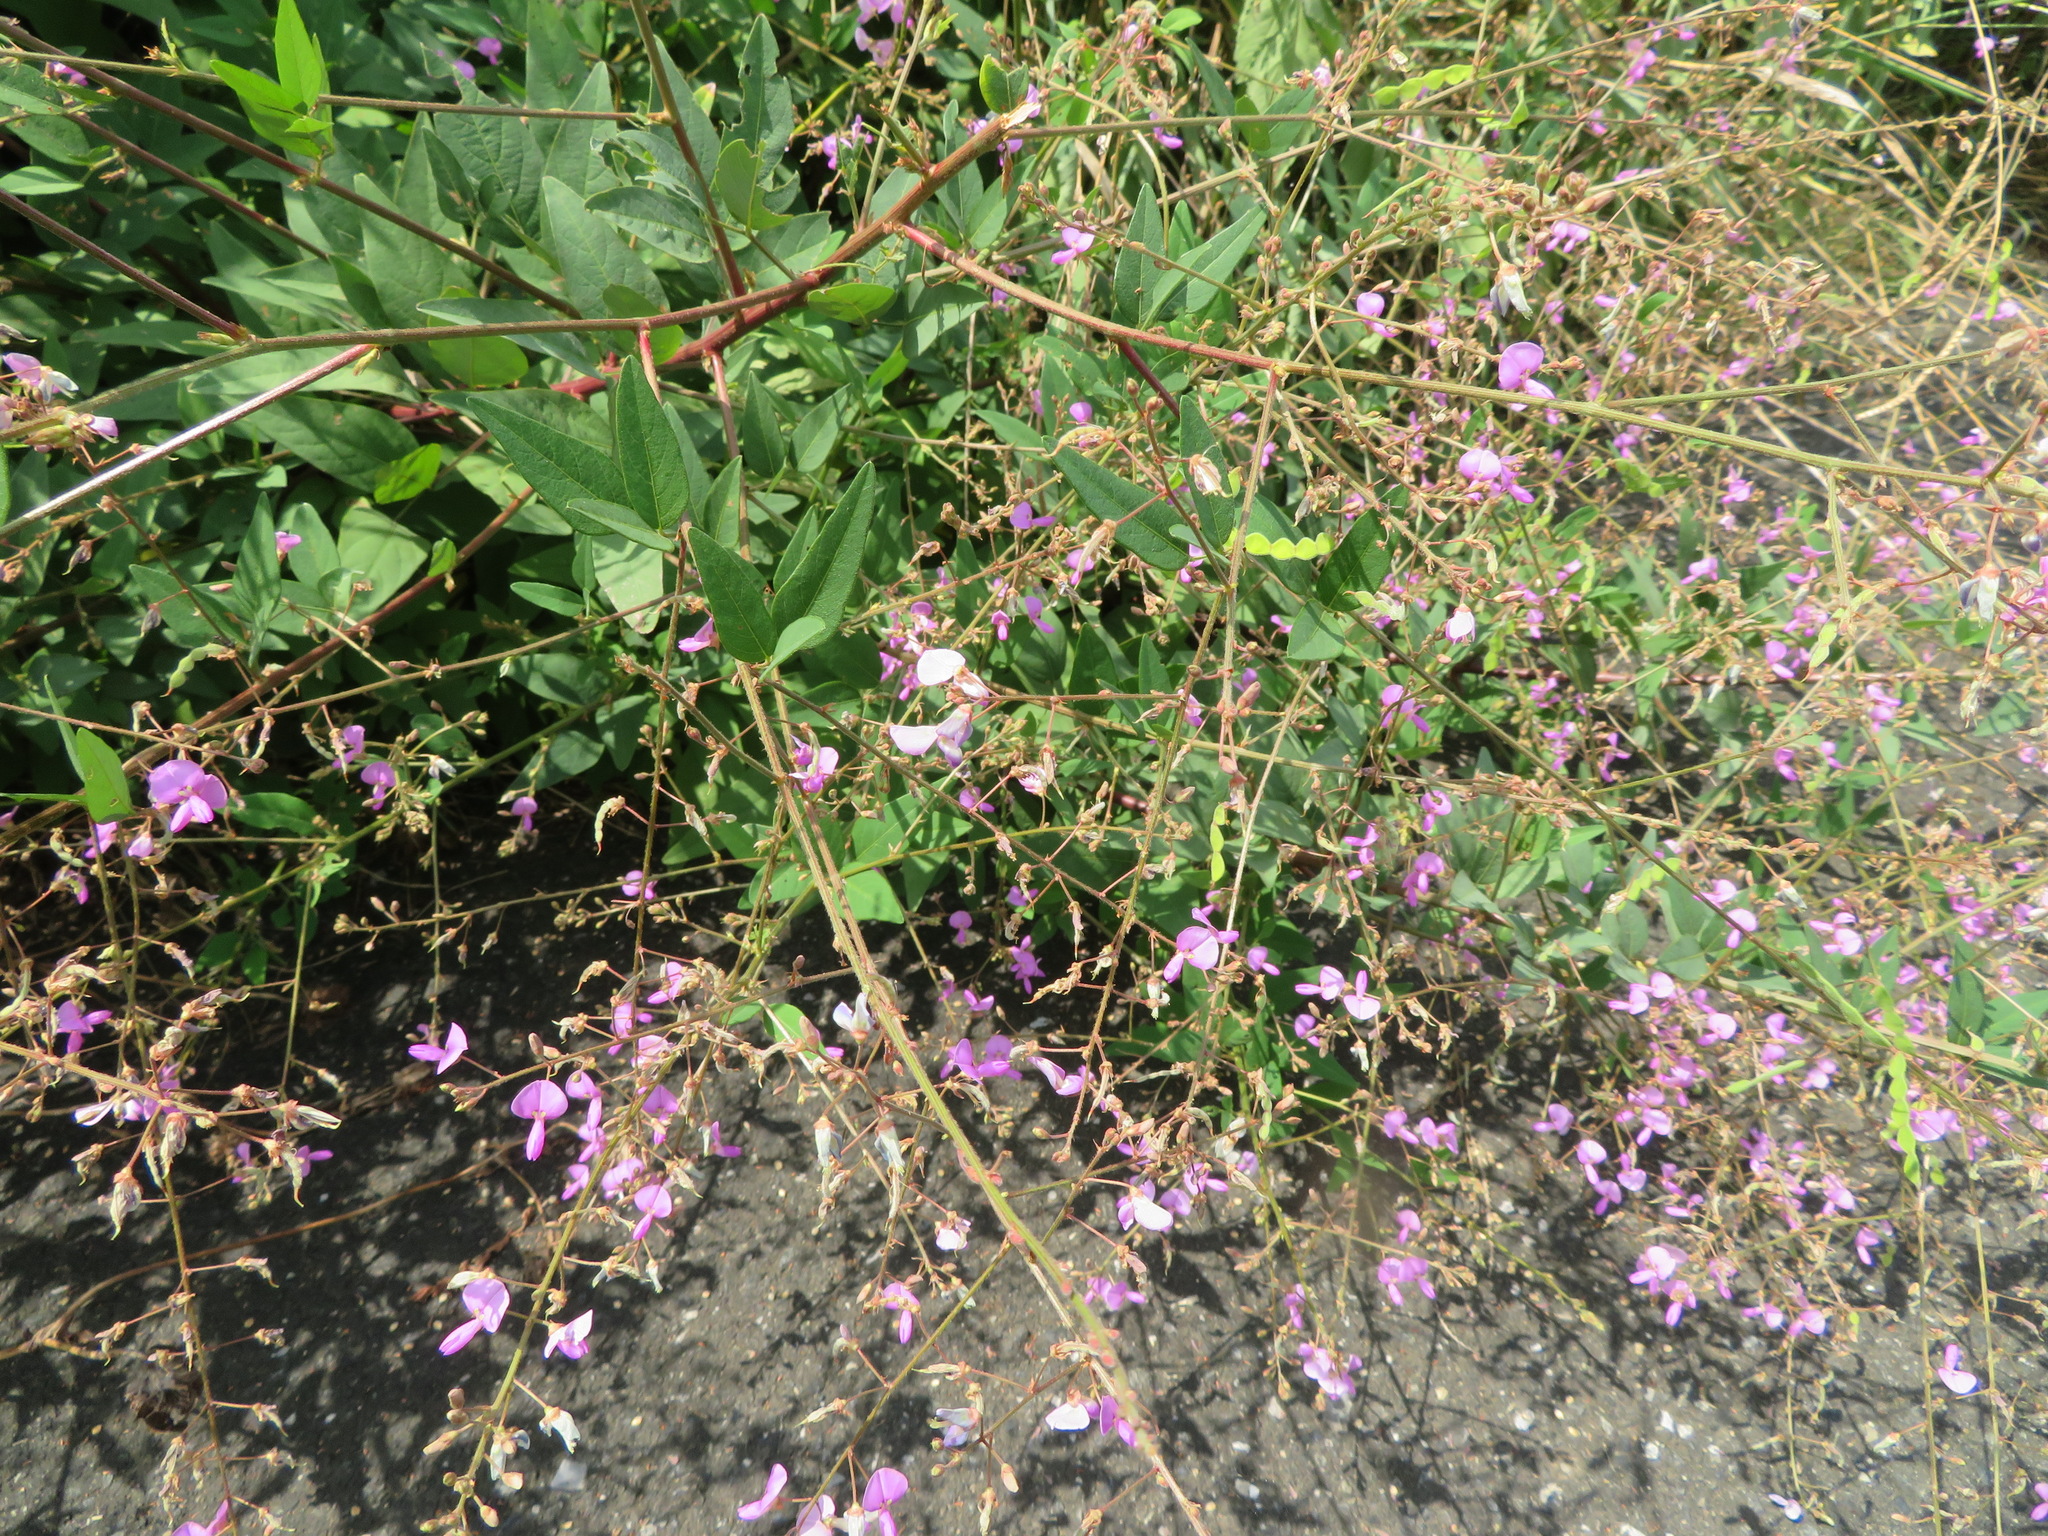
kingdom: Plantae
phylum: Tracheophyta
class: Magnoliopsida
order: Fabales
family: Fabaceae
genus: Desmodium
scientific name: Desmodium paniculatum
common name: Panicled tick-clover
